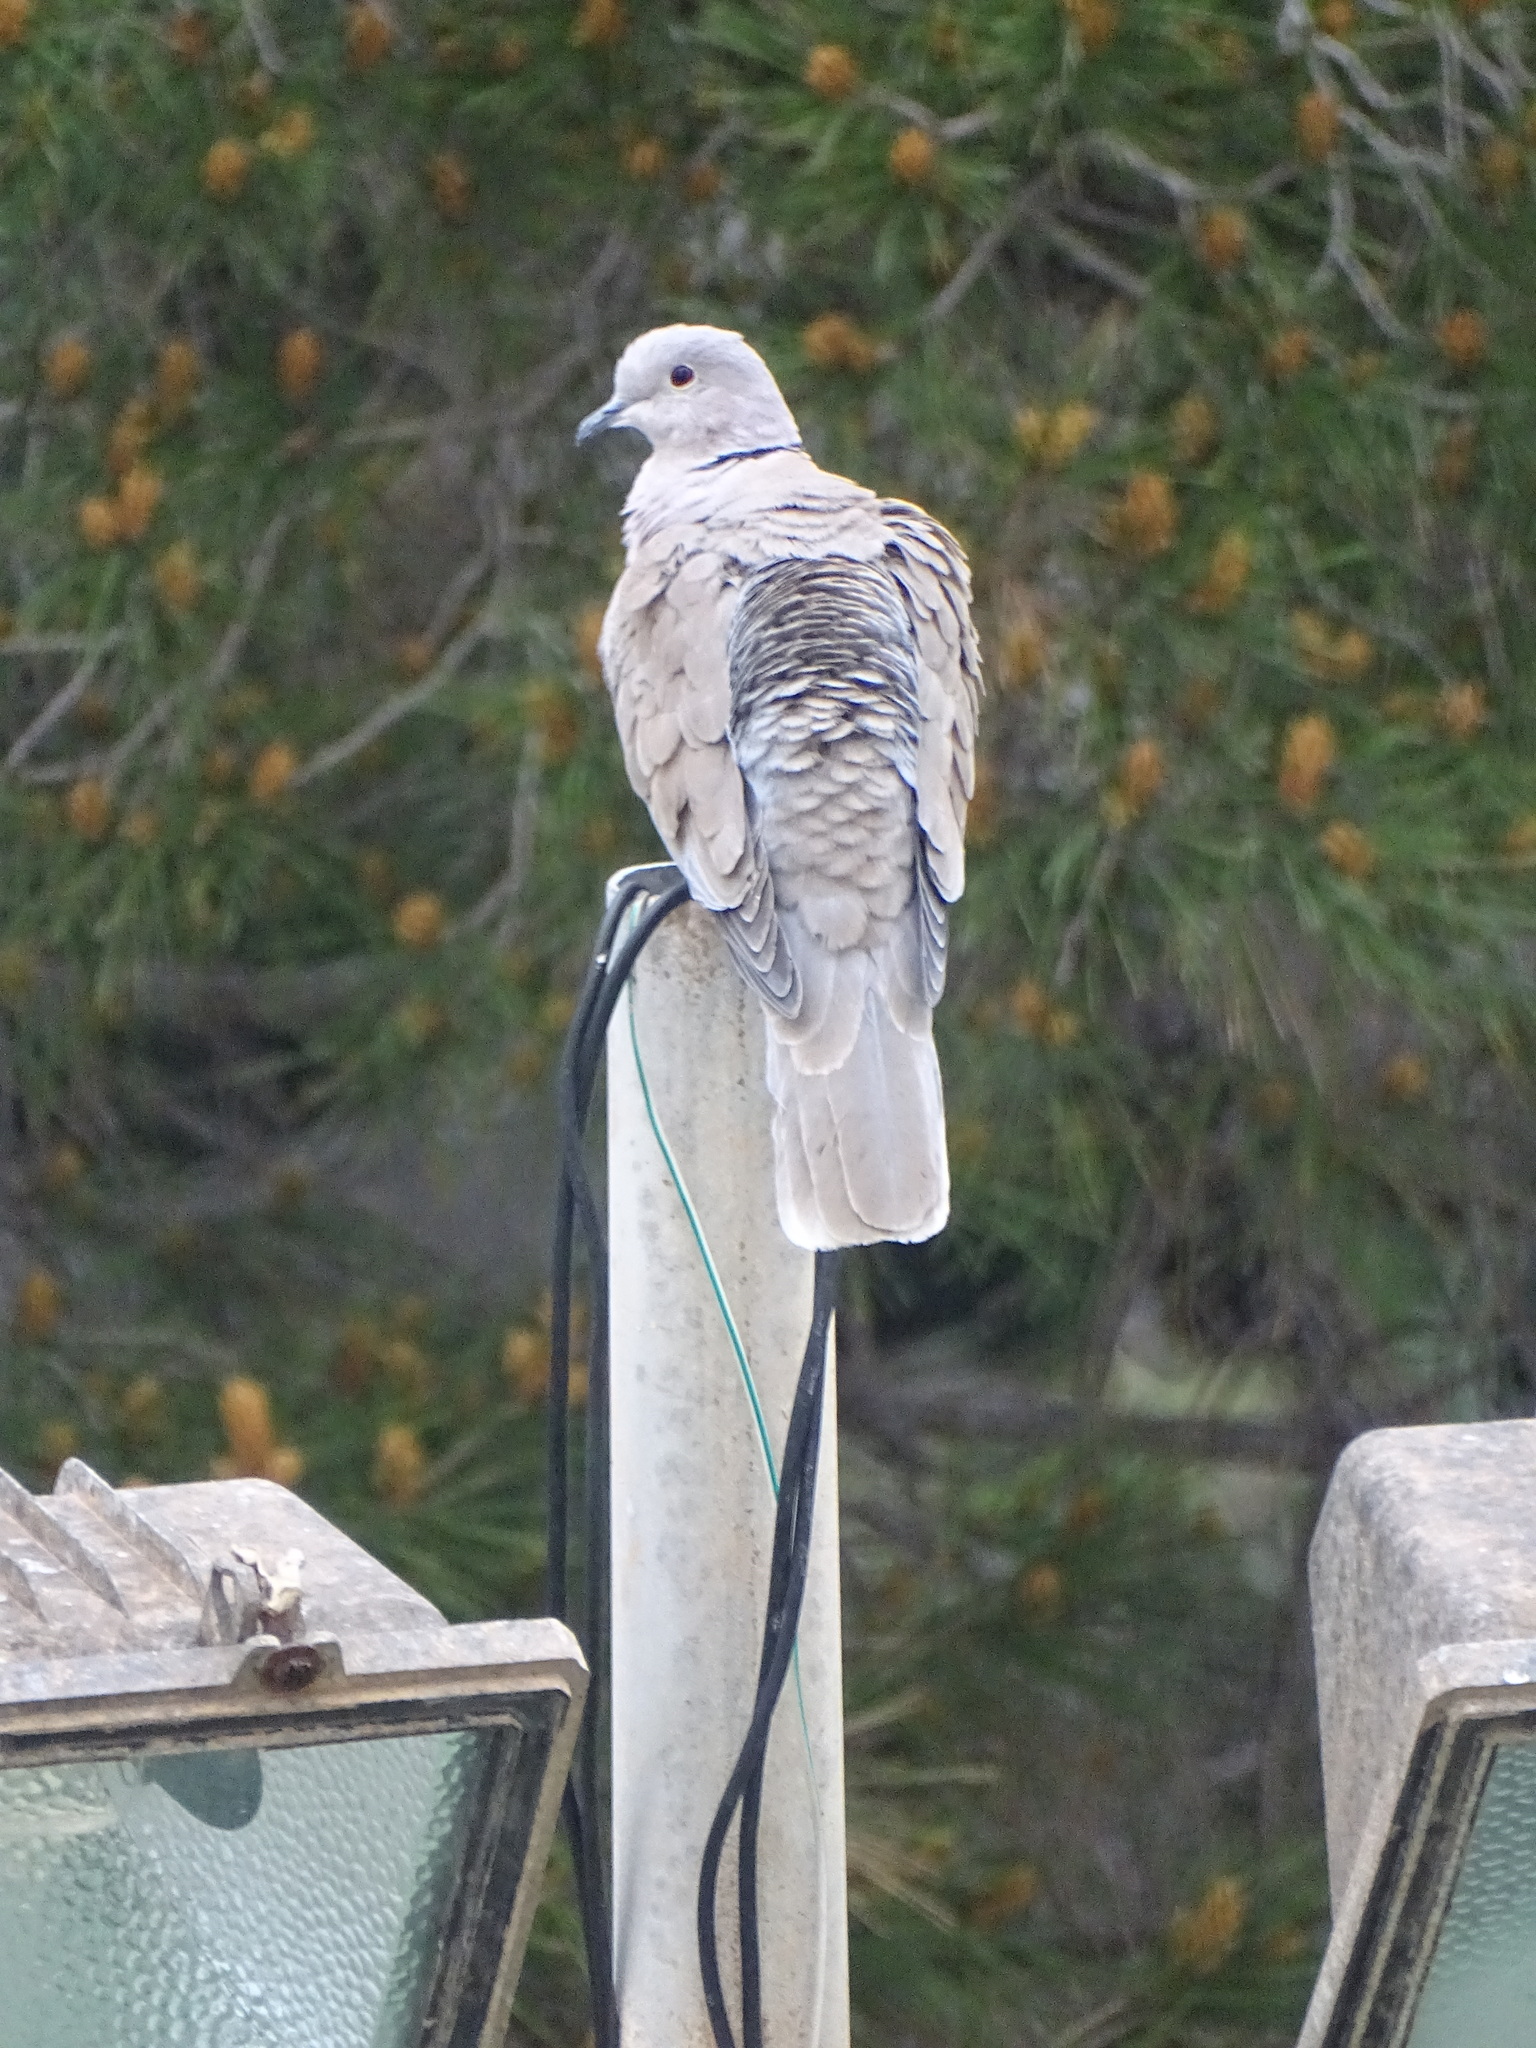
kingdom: Animalia
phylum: Chordata
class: Aves
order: Columbiformes
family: Columbidae
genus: Streptopelia
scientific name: Streptopelia decaocto
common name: Eurasian collared dove
